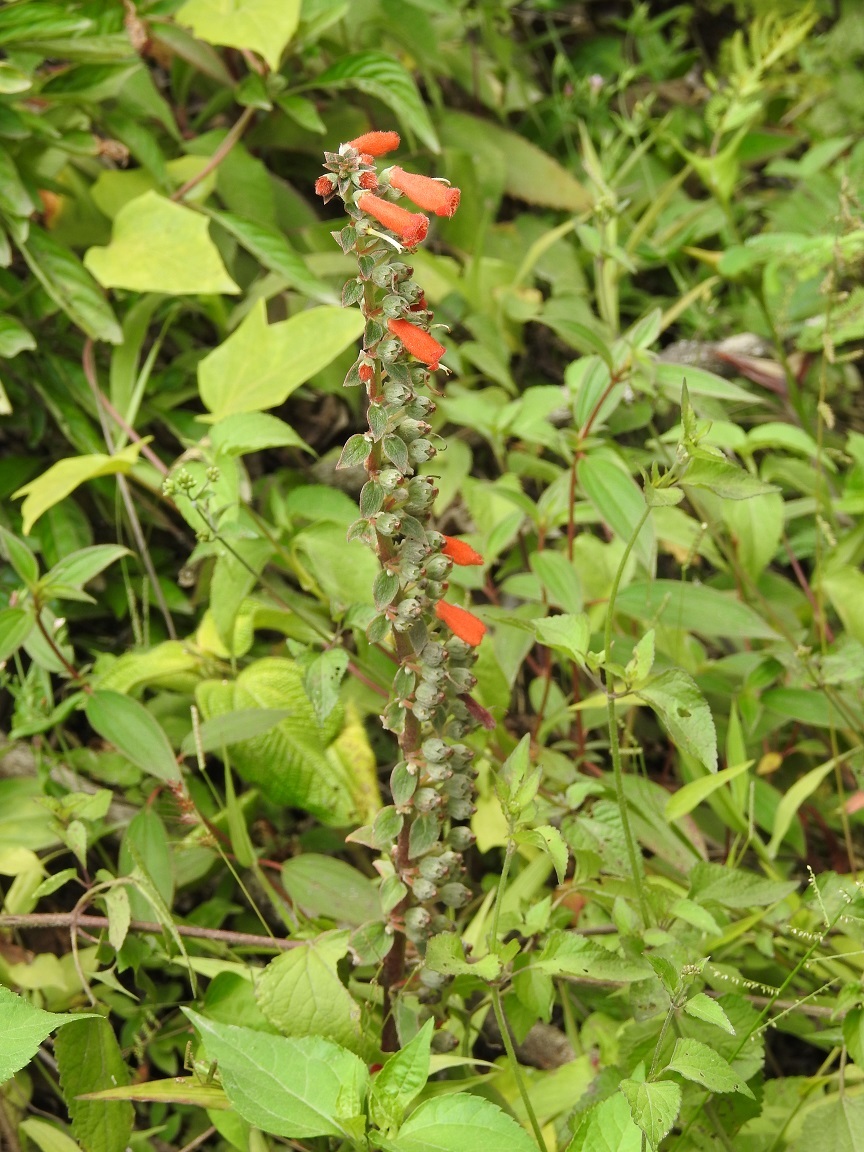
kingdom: Plantae
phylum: Tracheophyta
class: Magnoliopsida
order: Lamiales
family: Gesneriaceae
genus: Kohleria
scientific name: Kohleria spicata
